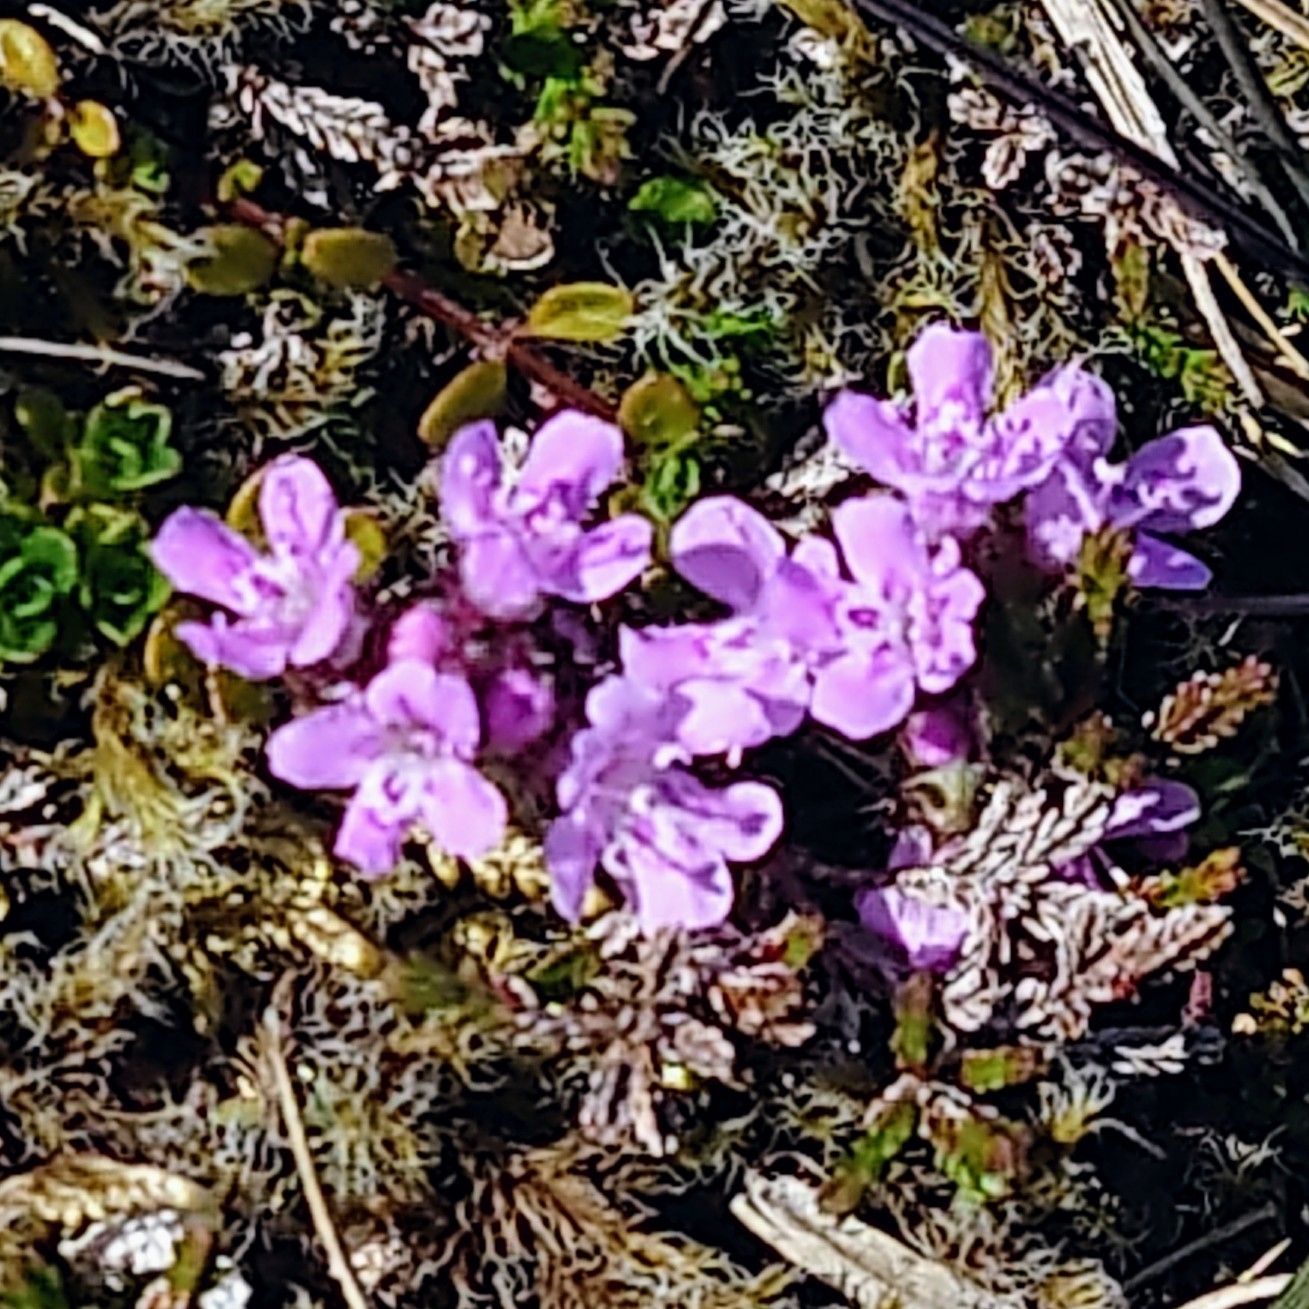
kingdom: Plantae
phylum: Tracheophyta
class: Magnoliopsida
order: Lamiales
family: Lamiaceae
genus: Thymus
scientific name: Thymus praecox
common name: Wild thyme
